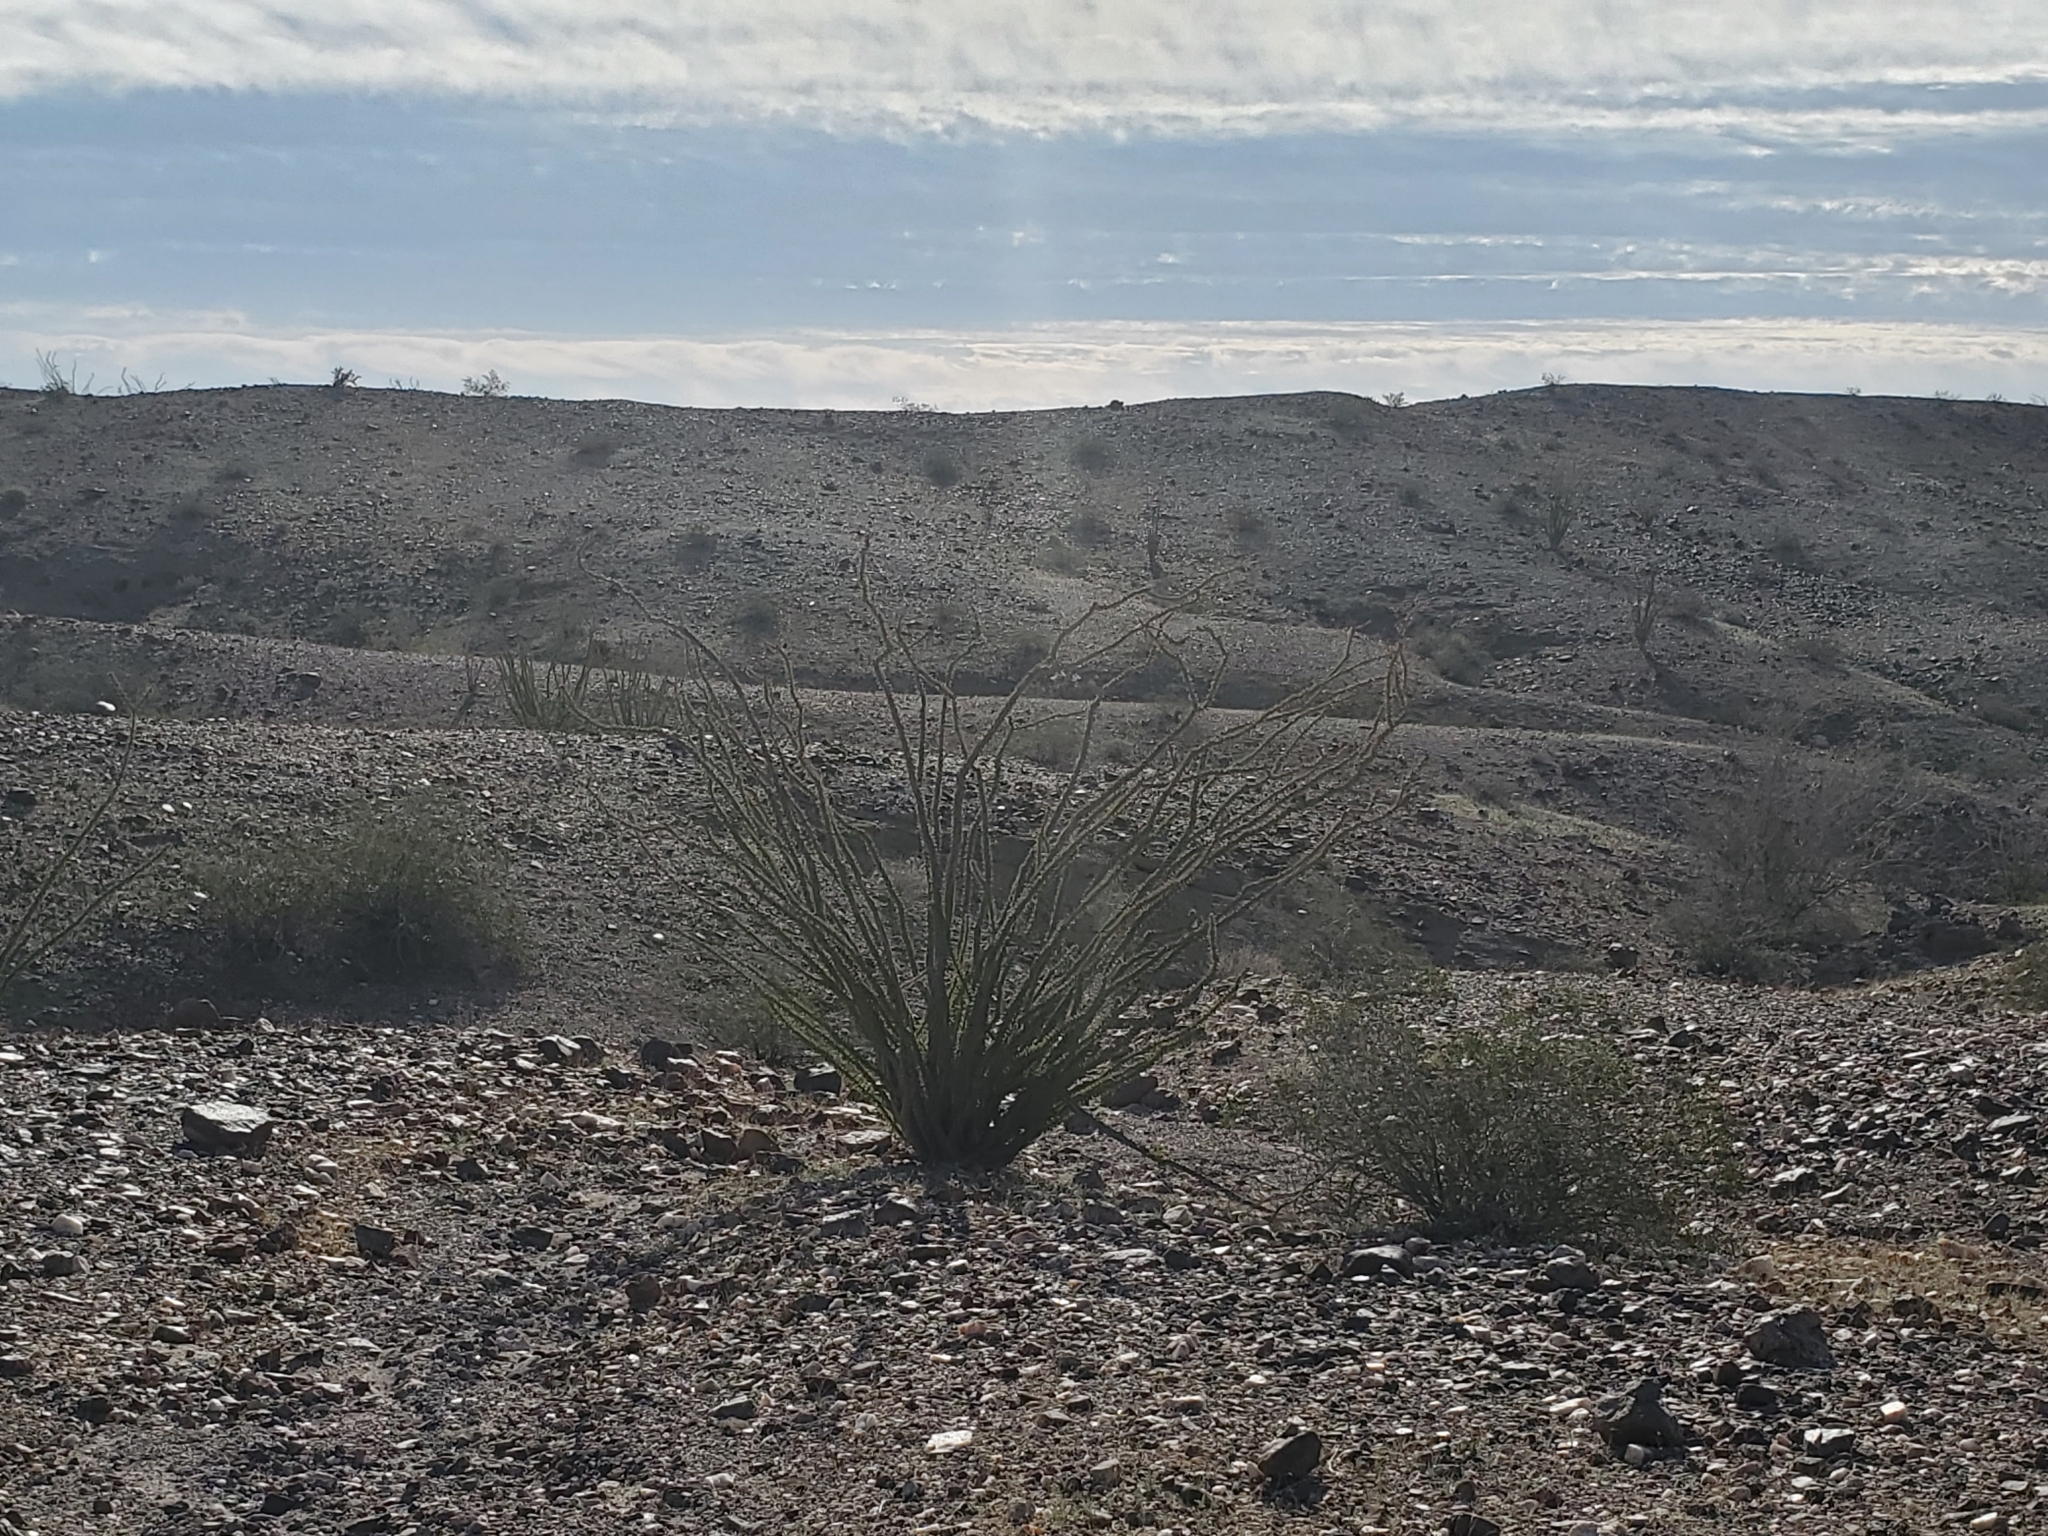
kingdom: Plantae
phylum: Tracheophyta
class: Magnoliopsida
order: Ericales
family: Fouquieriaceae
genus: Fouquieria
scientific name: Fouquieria splendens
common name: Vine-cactus
